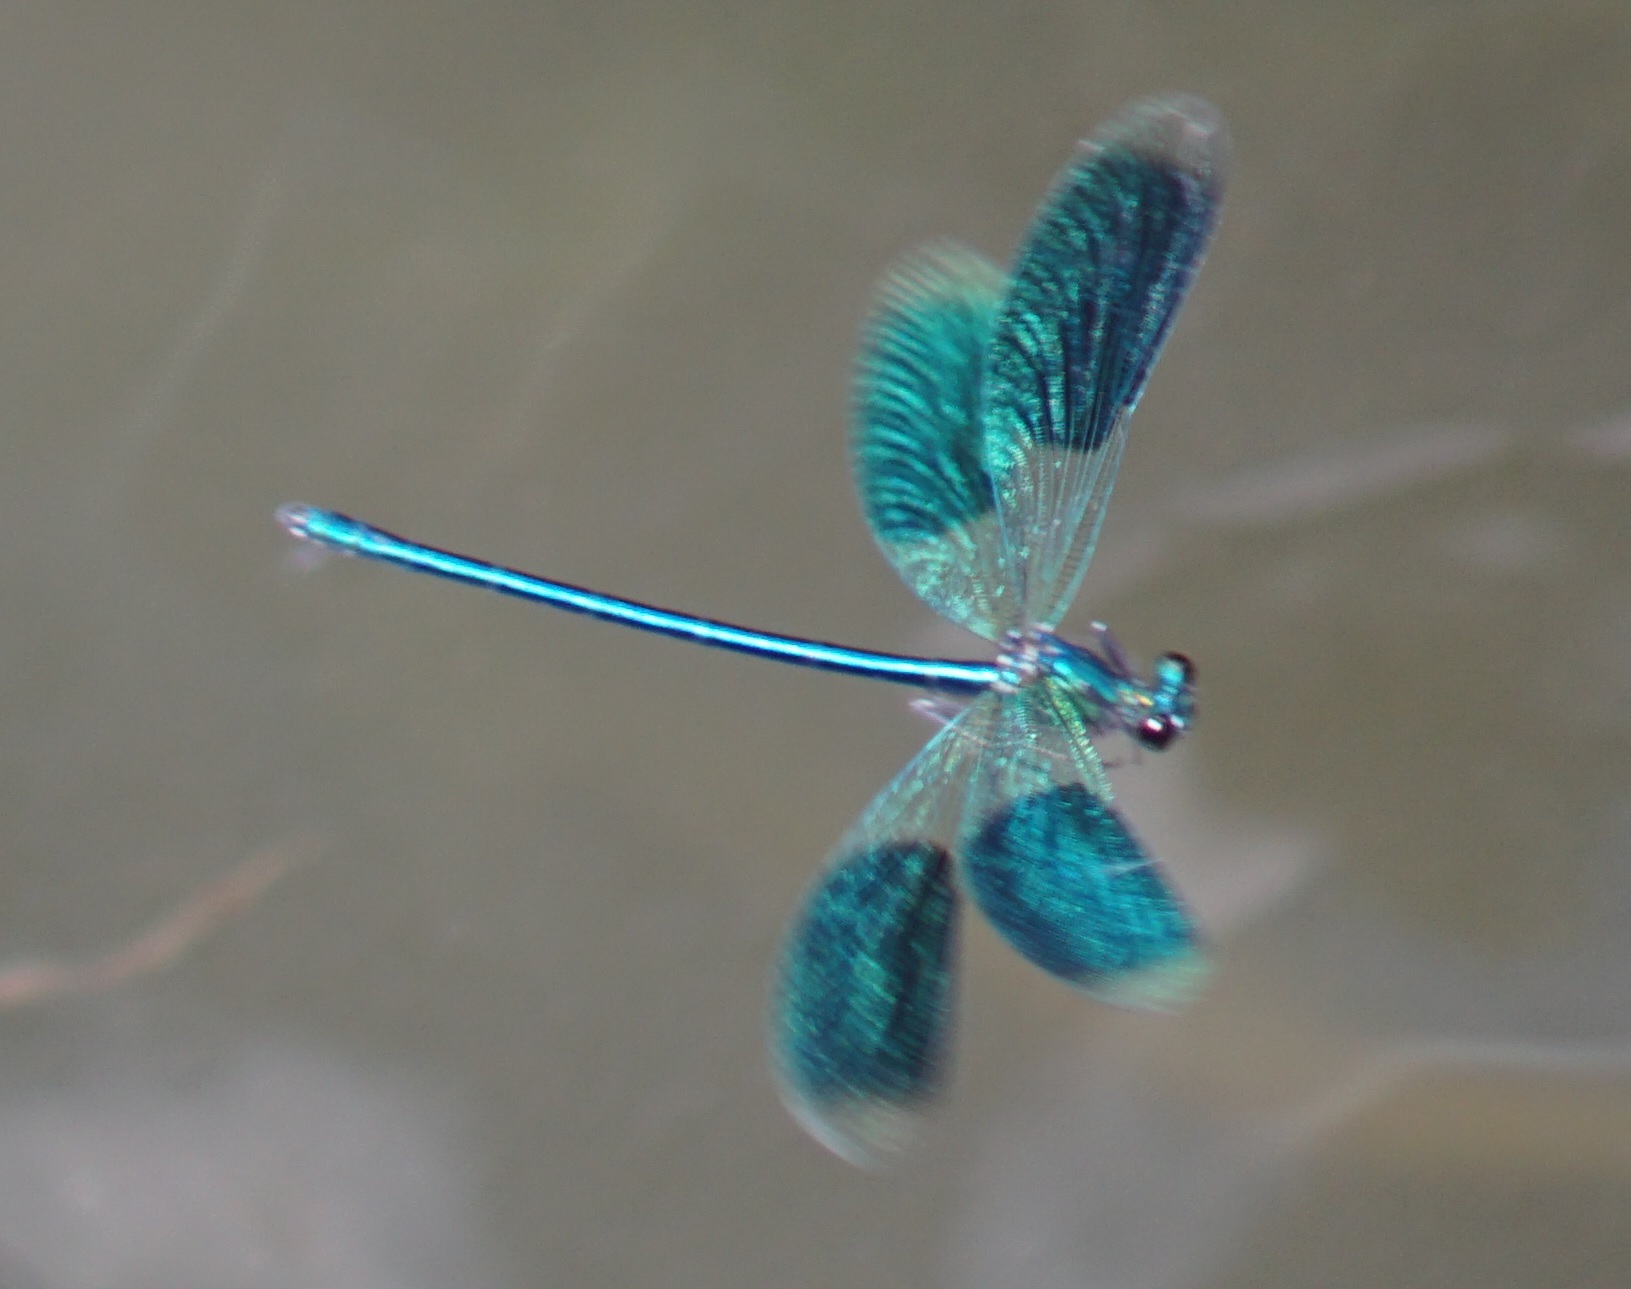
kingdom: Animalia
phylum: Arthropoda
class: Insecta
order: Odonata
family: Calopterygidae
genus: Calopteryx
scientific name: Calopteryx splendens
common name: Banded demoiselle
